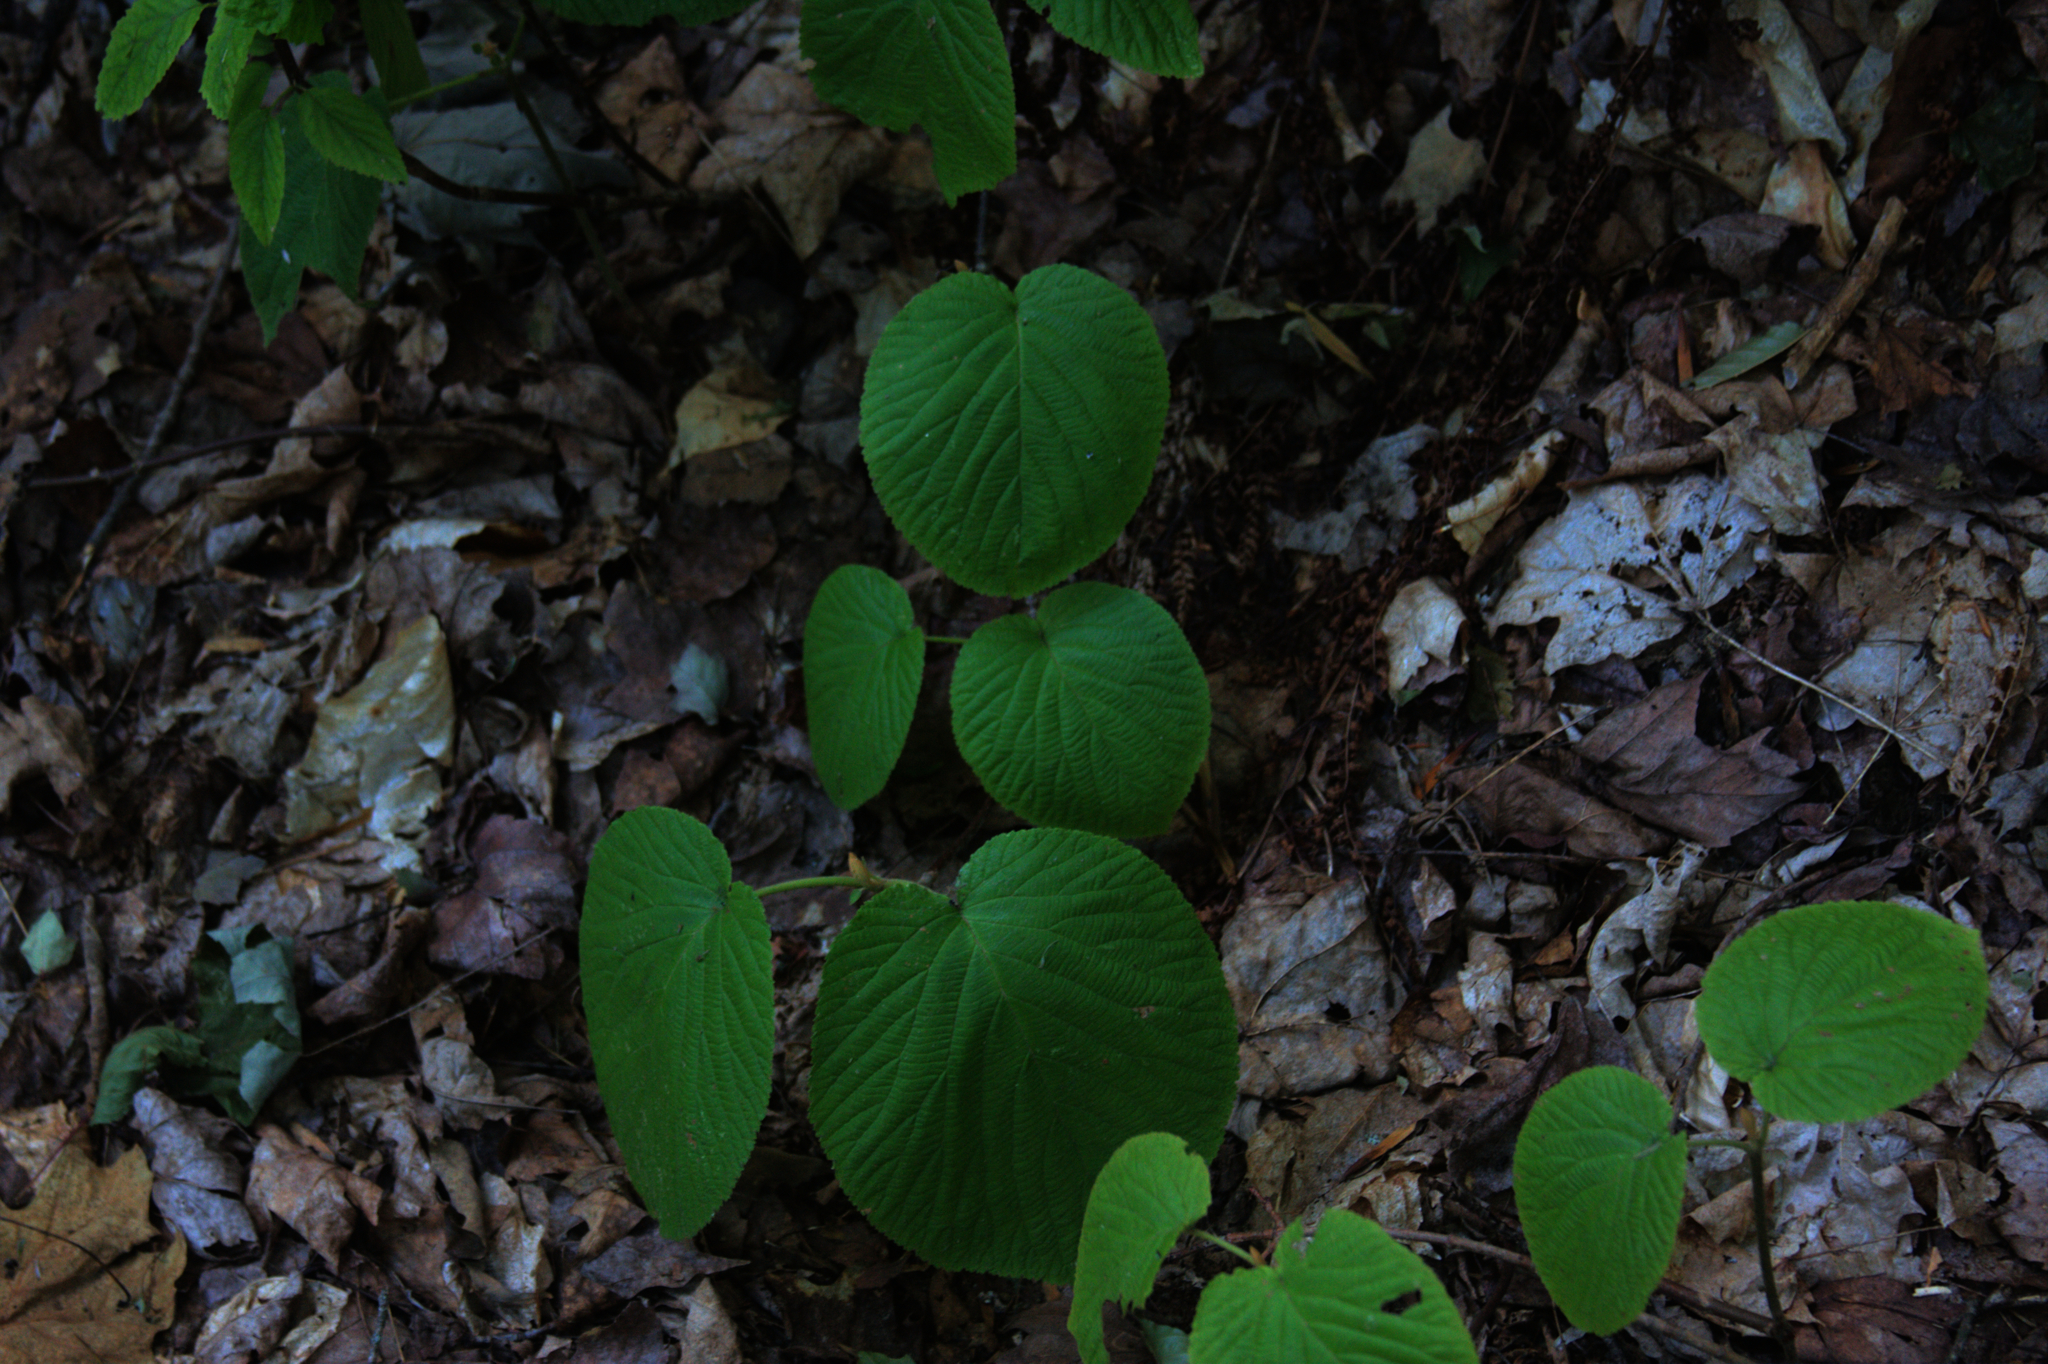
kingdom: Plantae
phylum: Tracheophyta
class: Magnoliopsida
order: Dipsacales
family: Viburnaceae
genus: Viburnum
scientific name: Viburnum lantanoides
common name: Hobblebush
